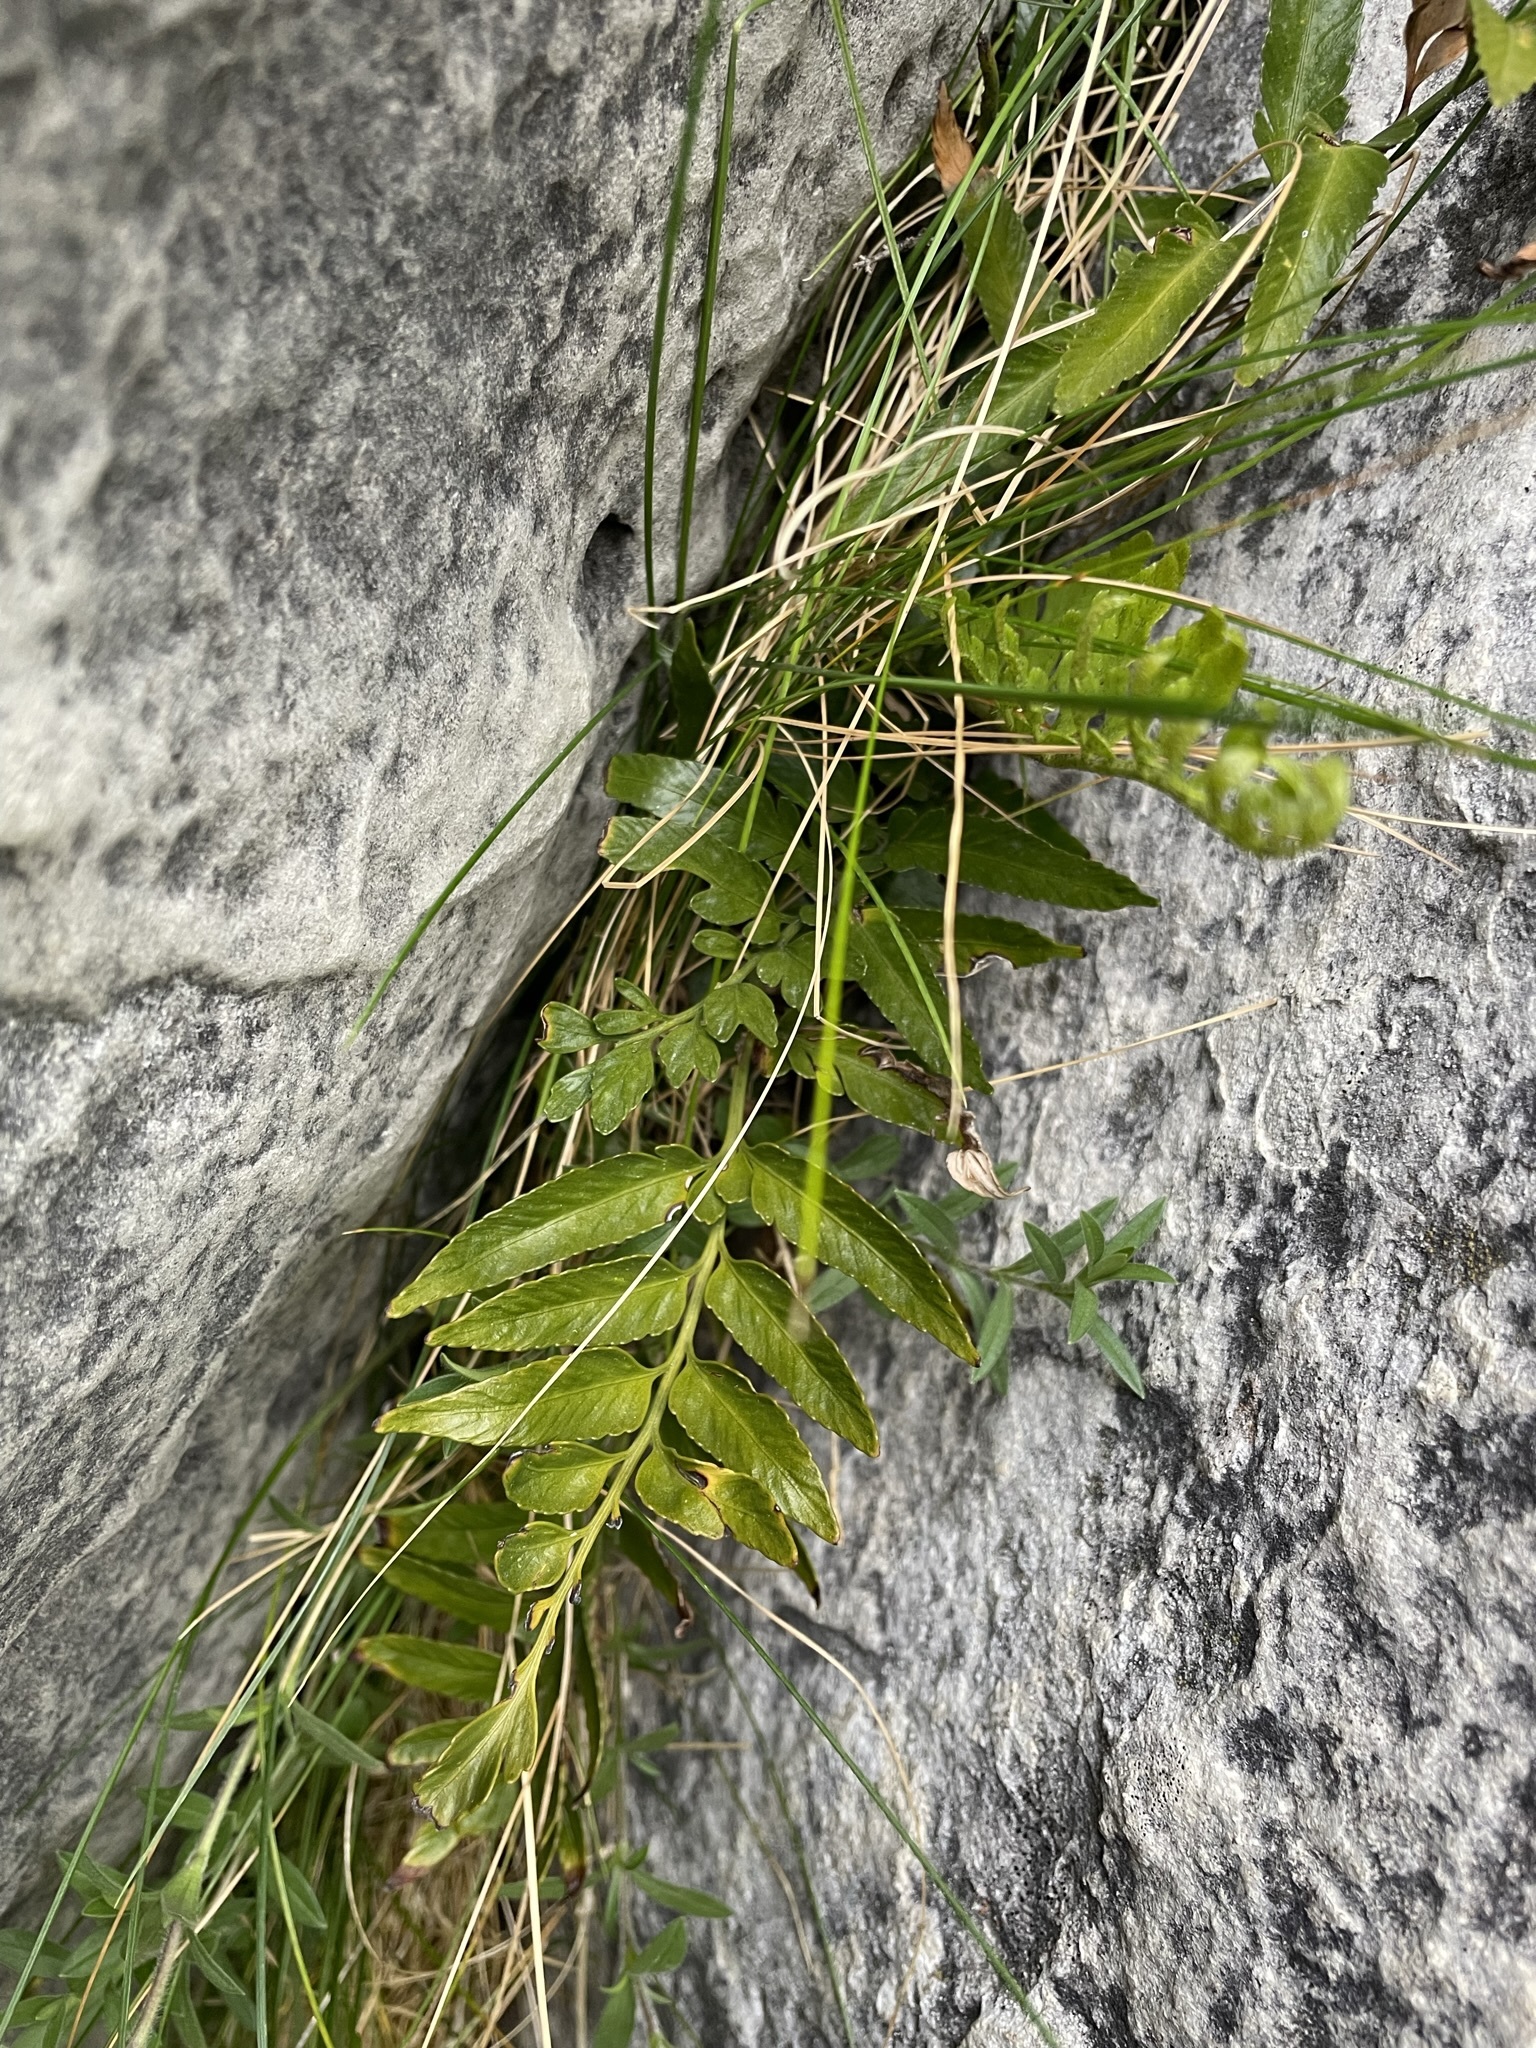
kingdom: Plantae
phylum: Tracheophyta
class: Polypodiopsida
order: Polypodiales
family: Aspleniaceae
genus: Asplenium
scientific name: Asplenium lyallii
